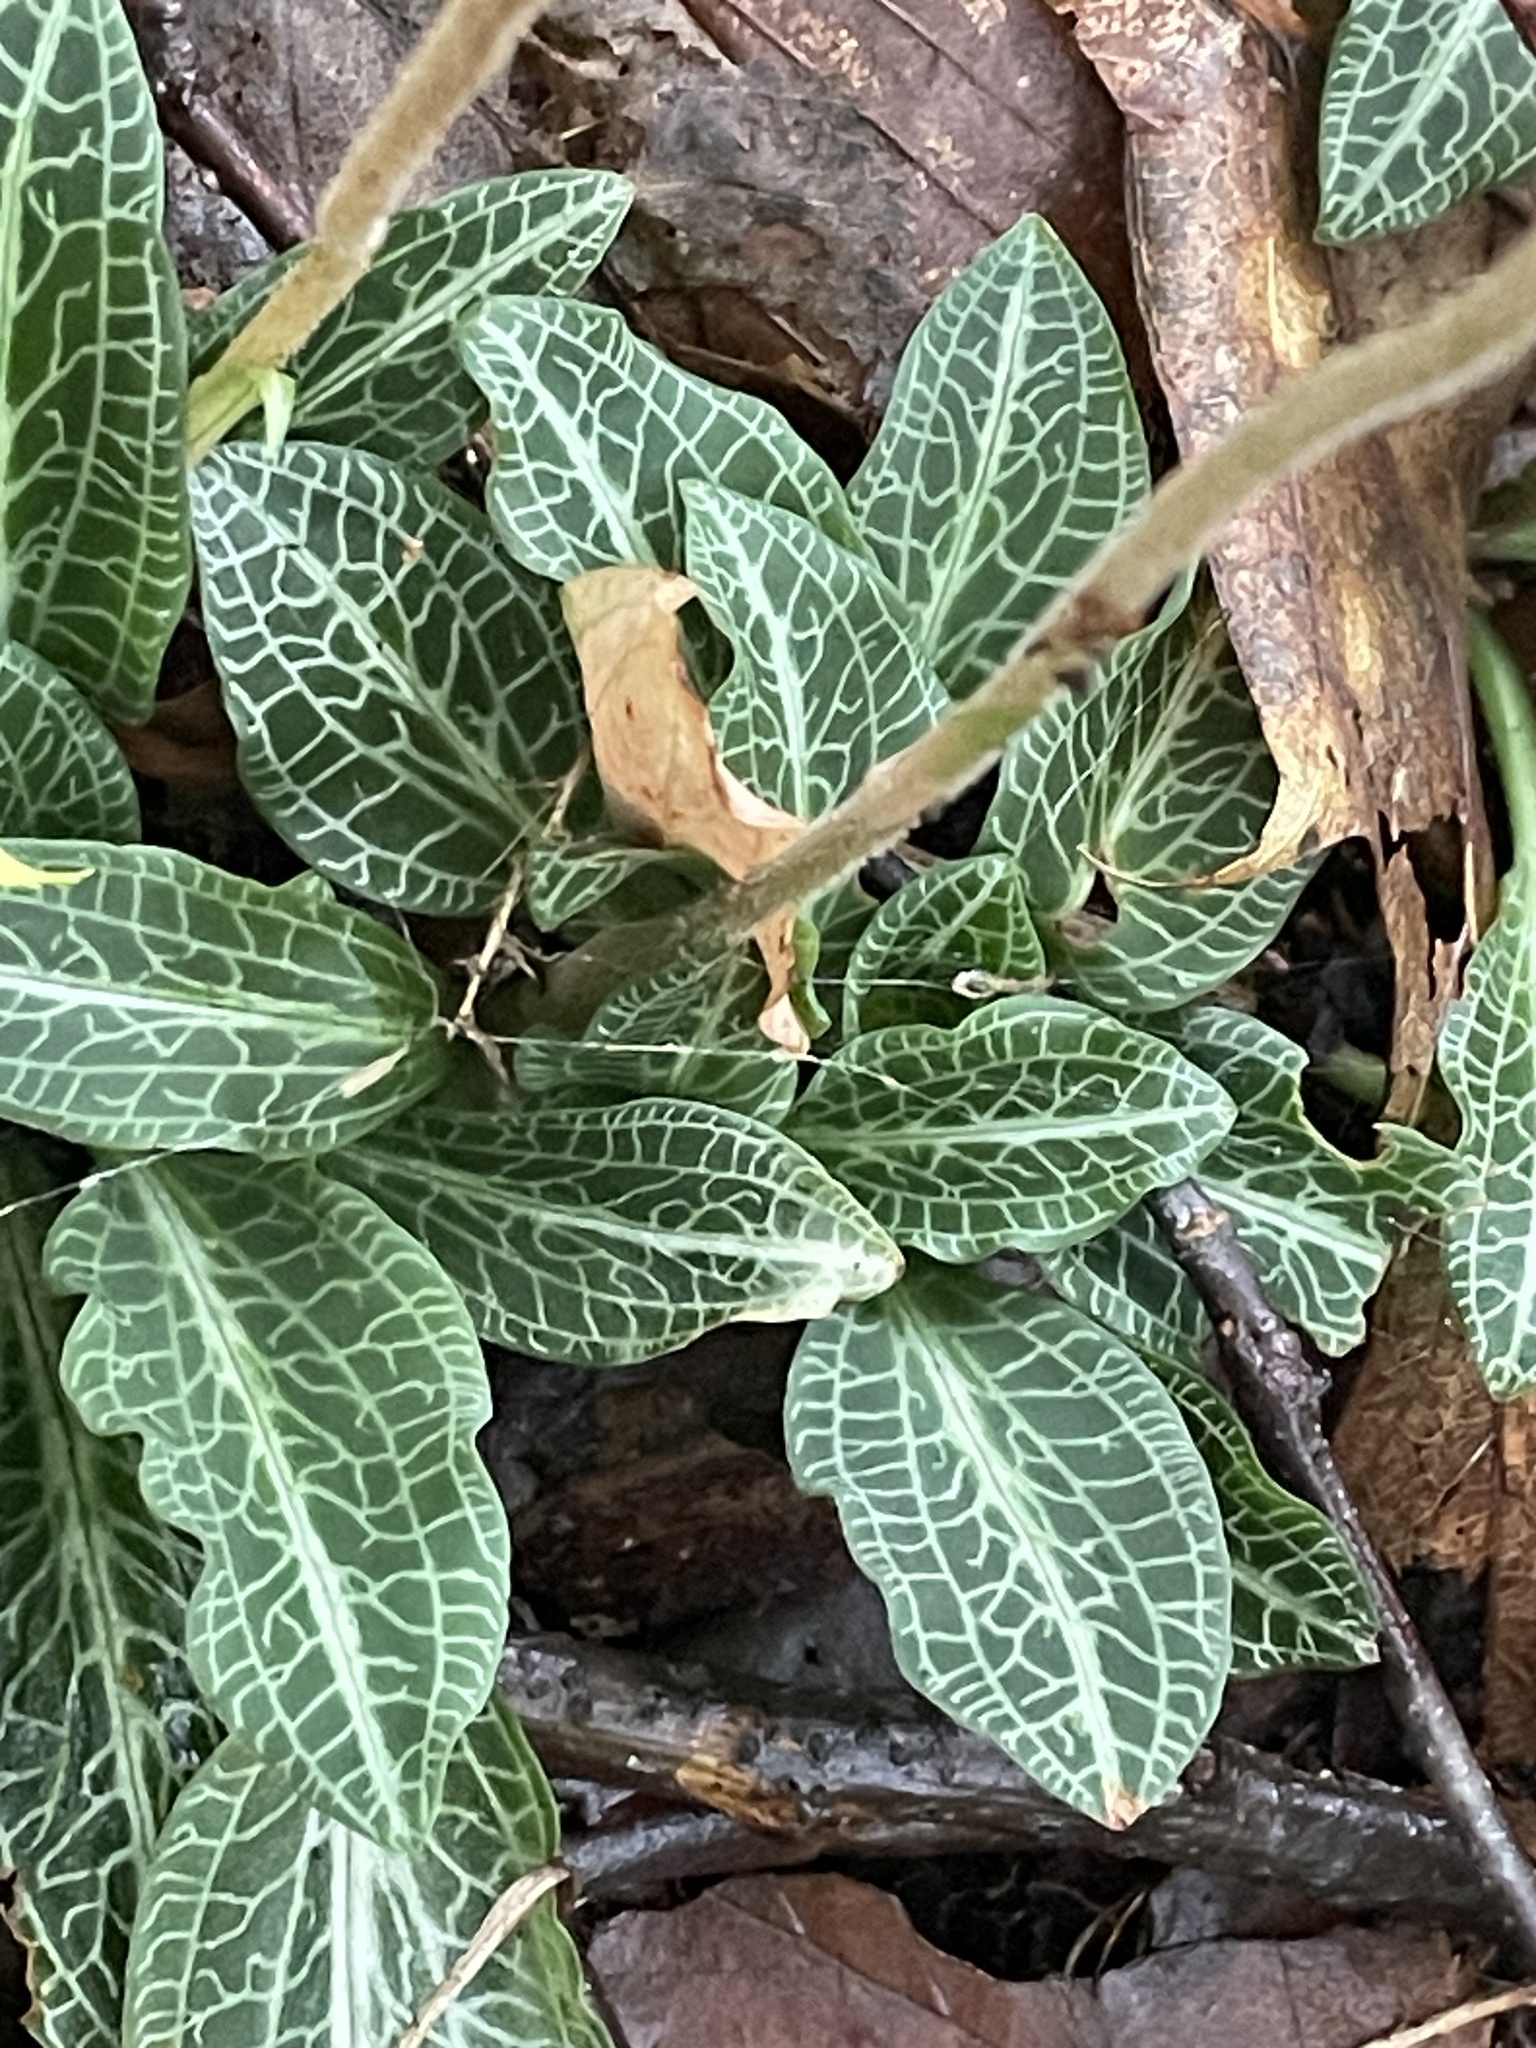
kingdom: Plantae
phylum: Tracheophyta
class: Liliopsida
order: Asparagales
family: Orchidaceae
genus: Goodyera
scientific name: Goodyera pubescens
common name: Downy rattlesnake-plantain
